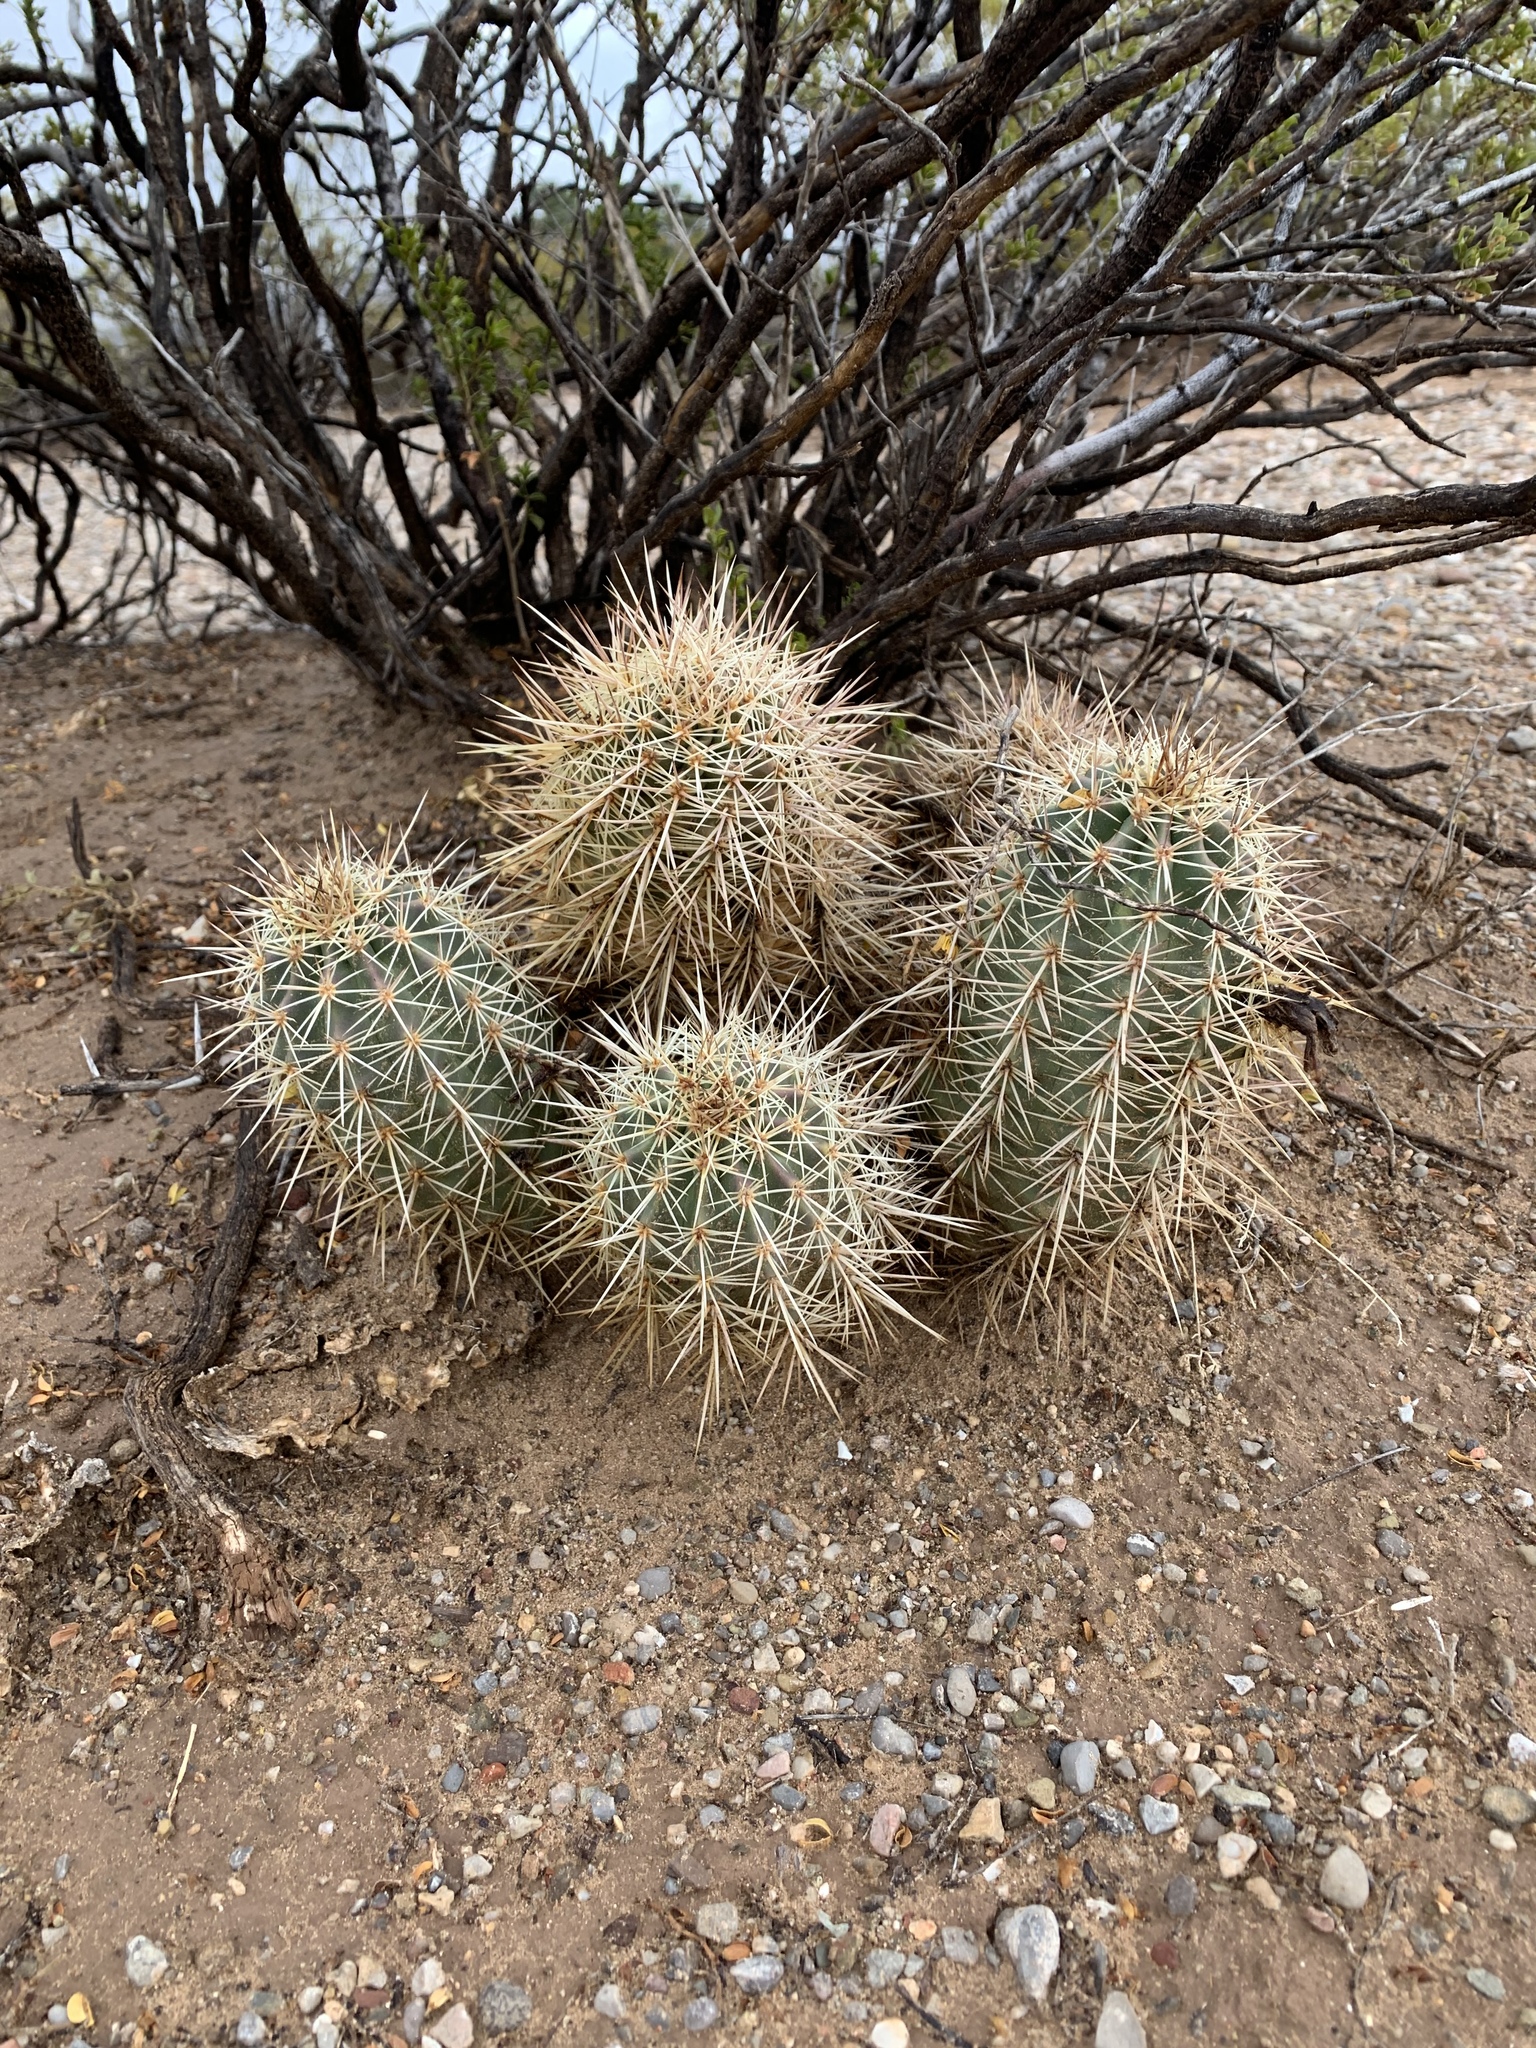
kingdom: Plantae
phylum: Tracheophyta
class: Magnoliopsida
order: Caryophyllales
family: Cactaceae
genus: Echinocereus
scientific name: Echinocereus coccineus
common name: Scarlet hedgehog cactus
